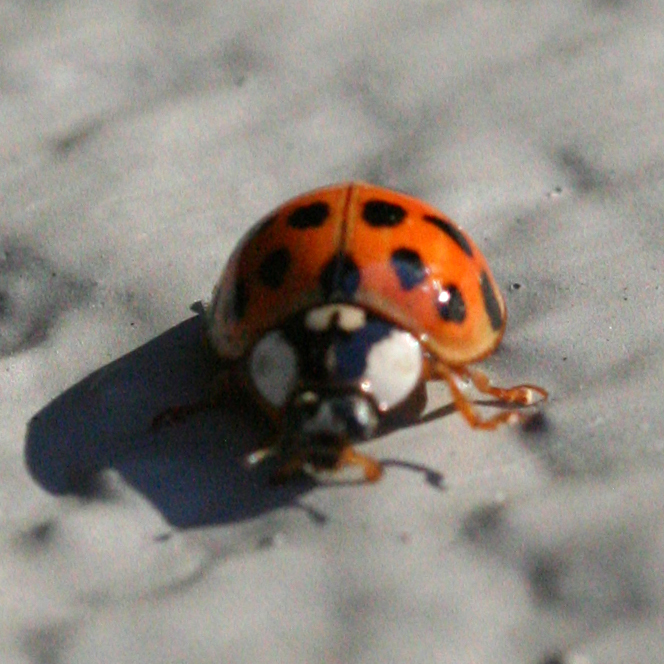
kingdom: Animalia
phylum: Arthropoda
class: Insecta
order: Coleoptera
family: Coccinellidae
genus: Harmonia
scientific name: Harmonia axyridis
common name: Harlequin ladybird
